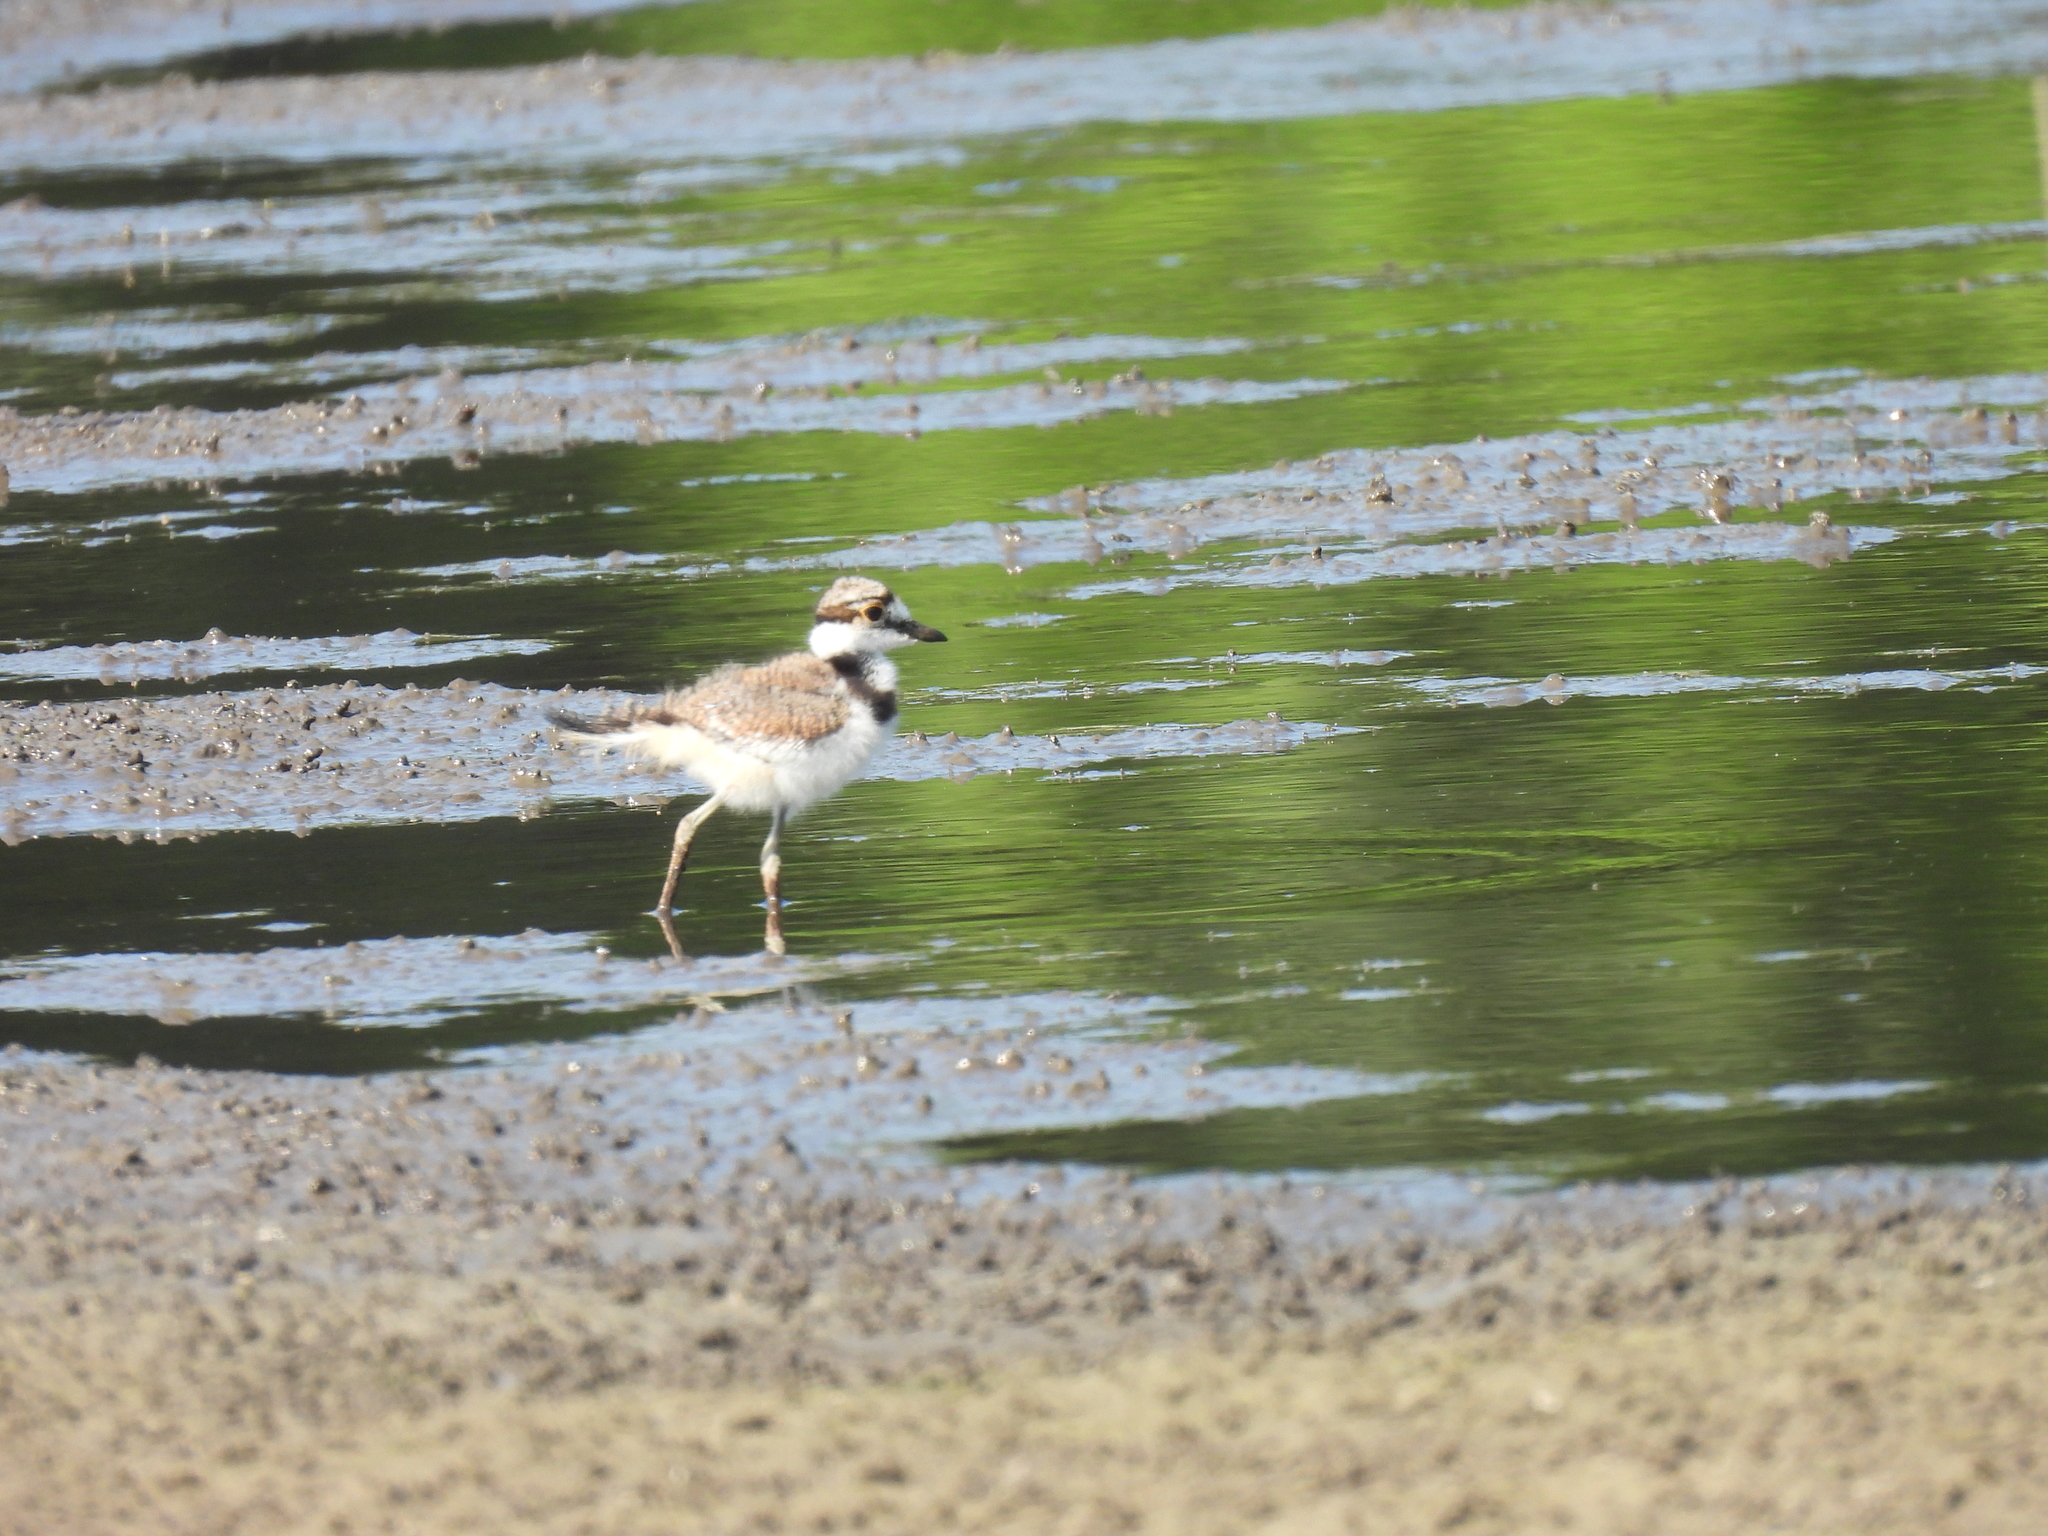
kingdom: Animalia
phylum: Chordata
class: Aves
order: Charadriiformes
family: Charadriidae
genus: Charadrius
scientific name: Charadrius vociferus
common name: Killdeer
